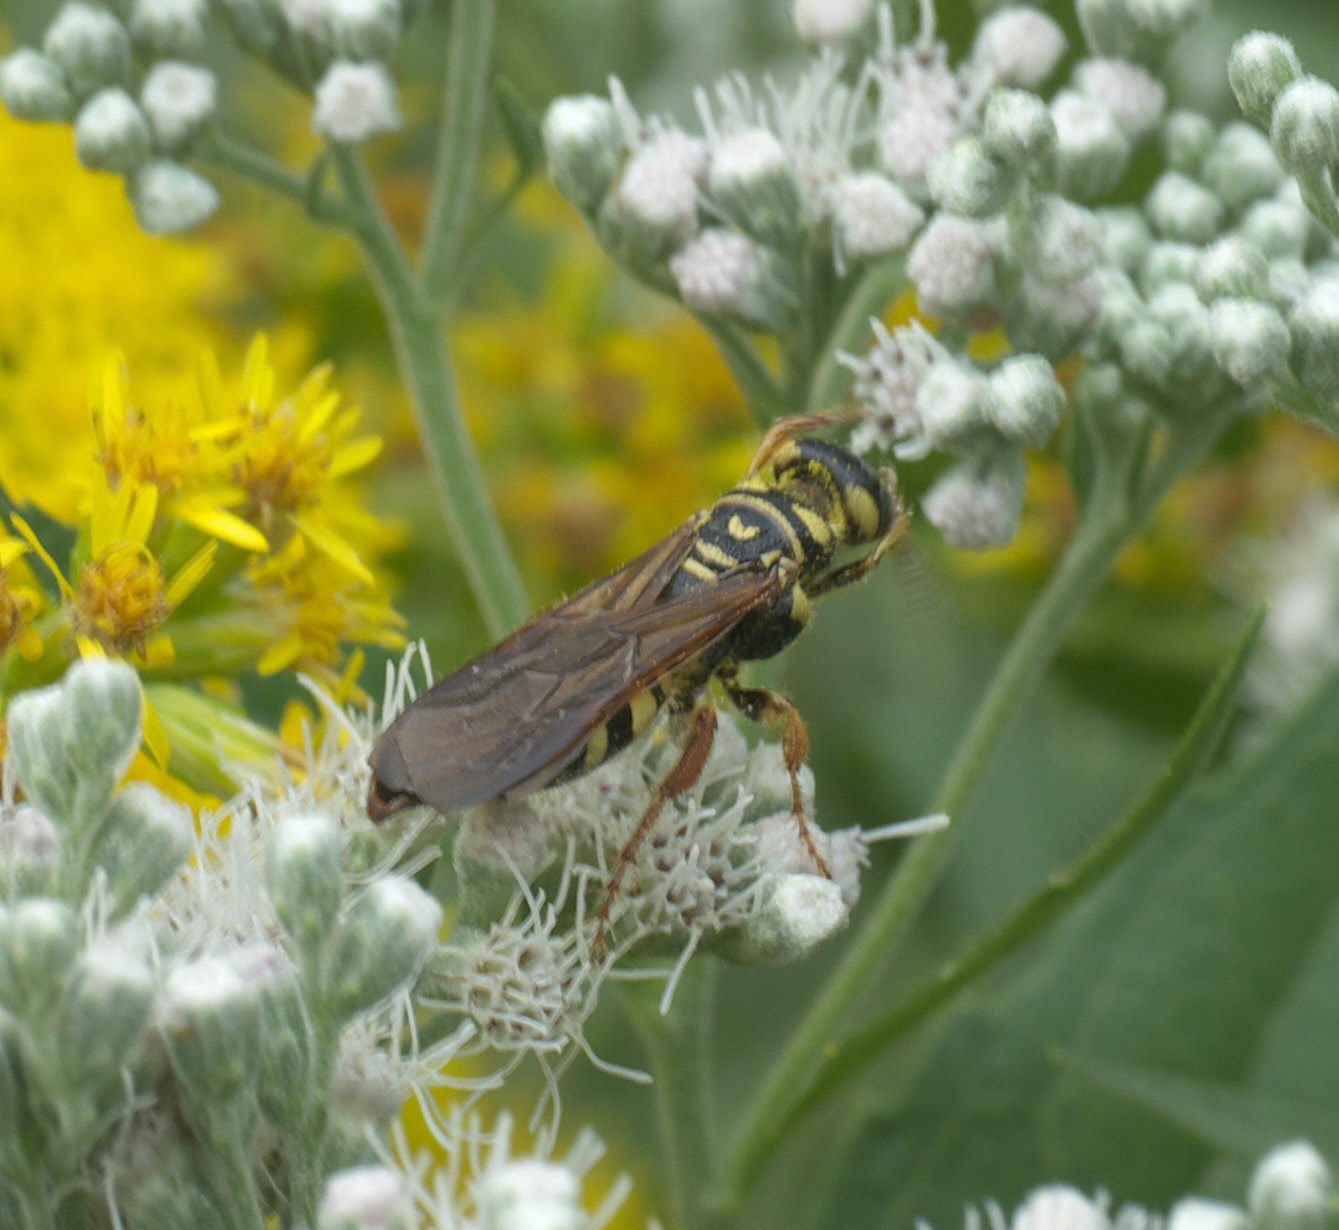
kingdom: Animalia
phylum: Arthropoda
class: Insecta
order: Hymenoptera
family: Tiphiidae
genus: Myzinum
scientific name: Myzinum quinquecinctum
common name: Five-banded thynnid wasp
